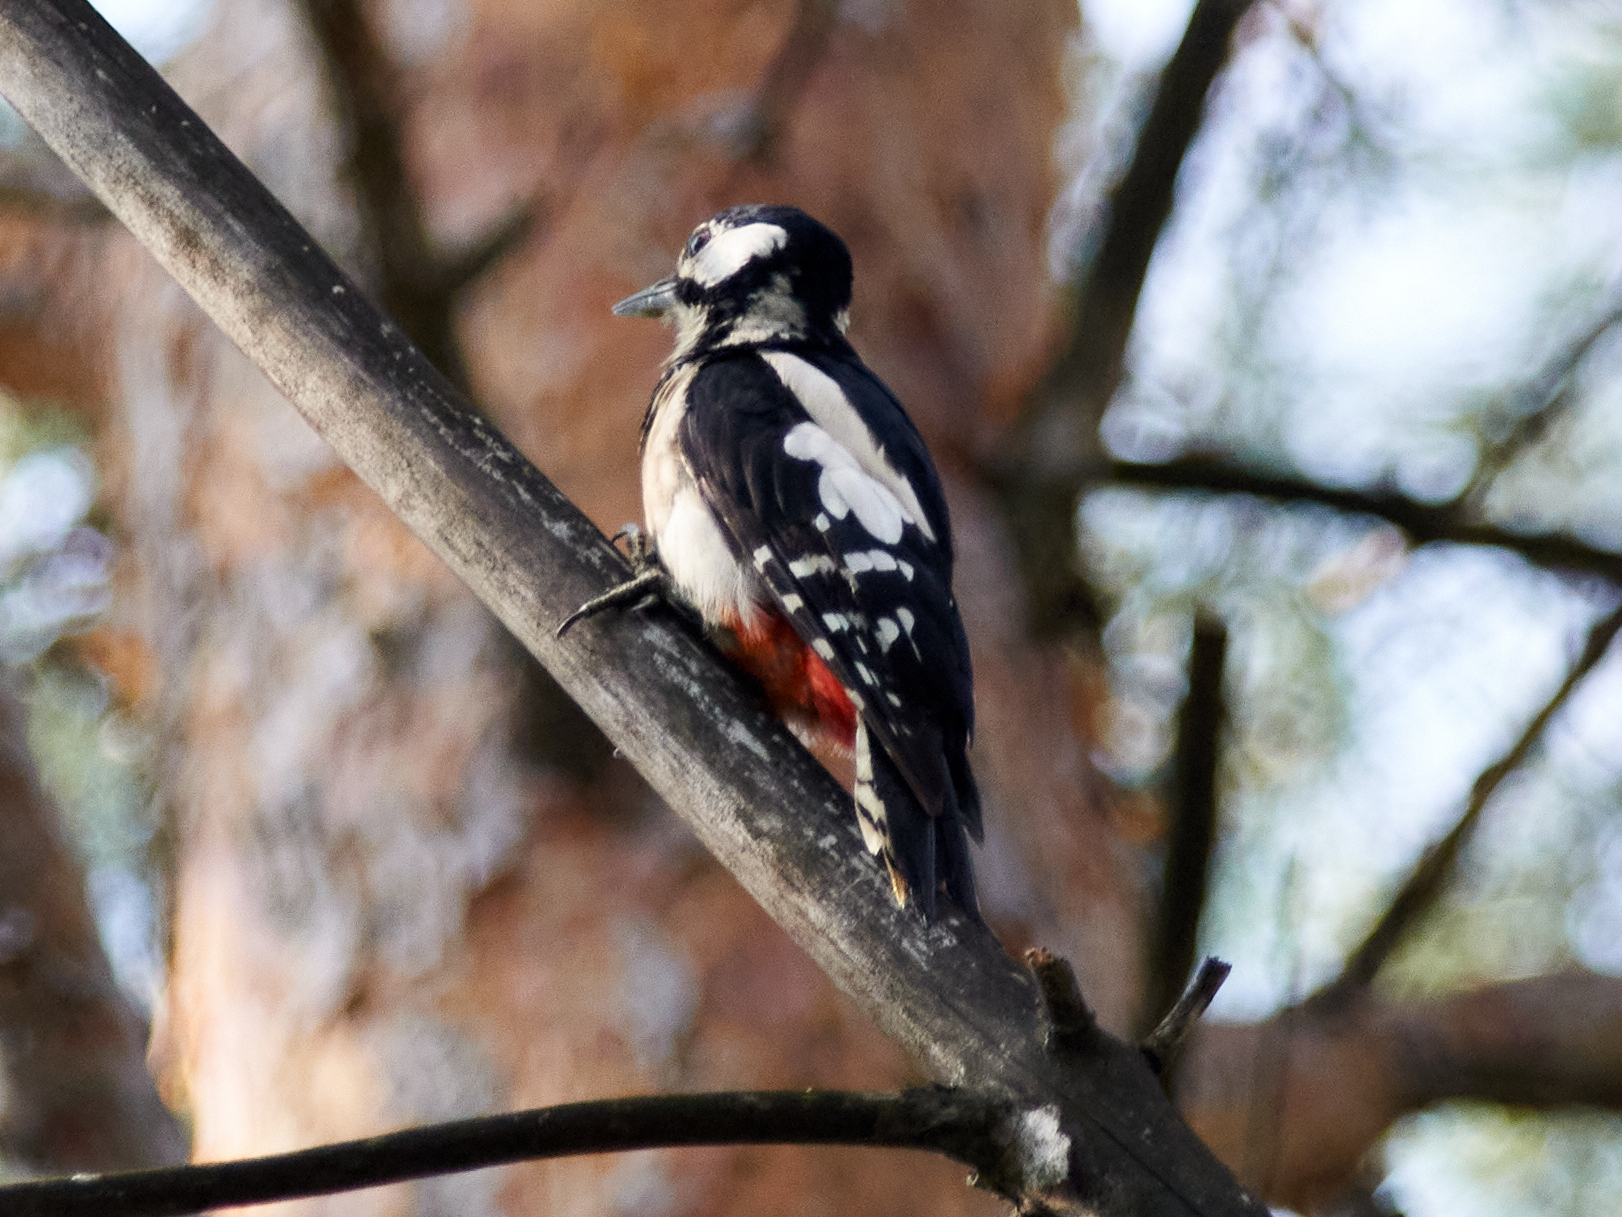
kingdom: Animalia
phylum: Chordata
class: Aves
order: Piciformes
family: Picidae
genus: Dendrocopos
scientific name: Dendrocopos major
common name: Great spotted woodpecker
